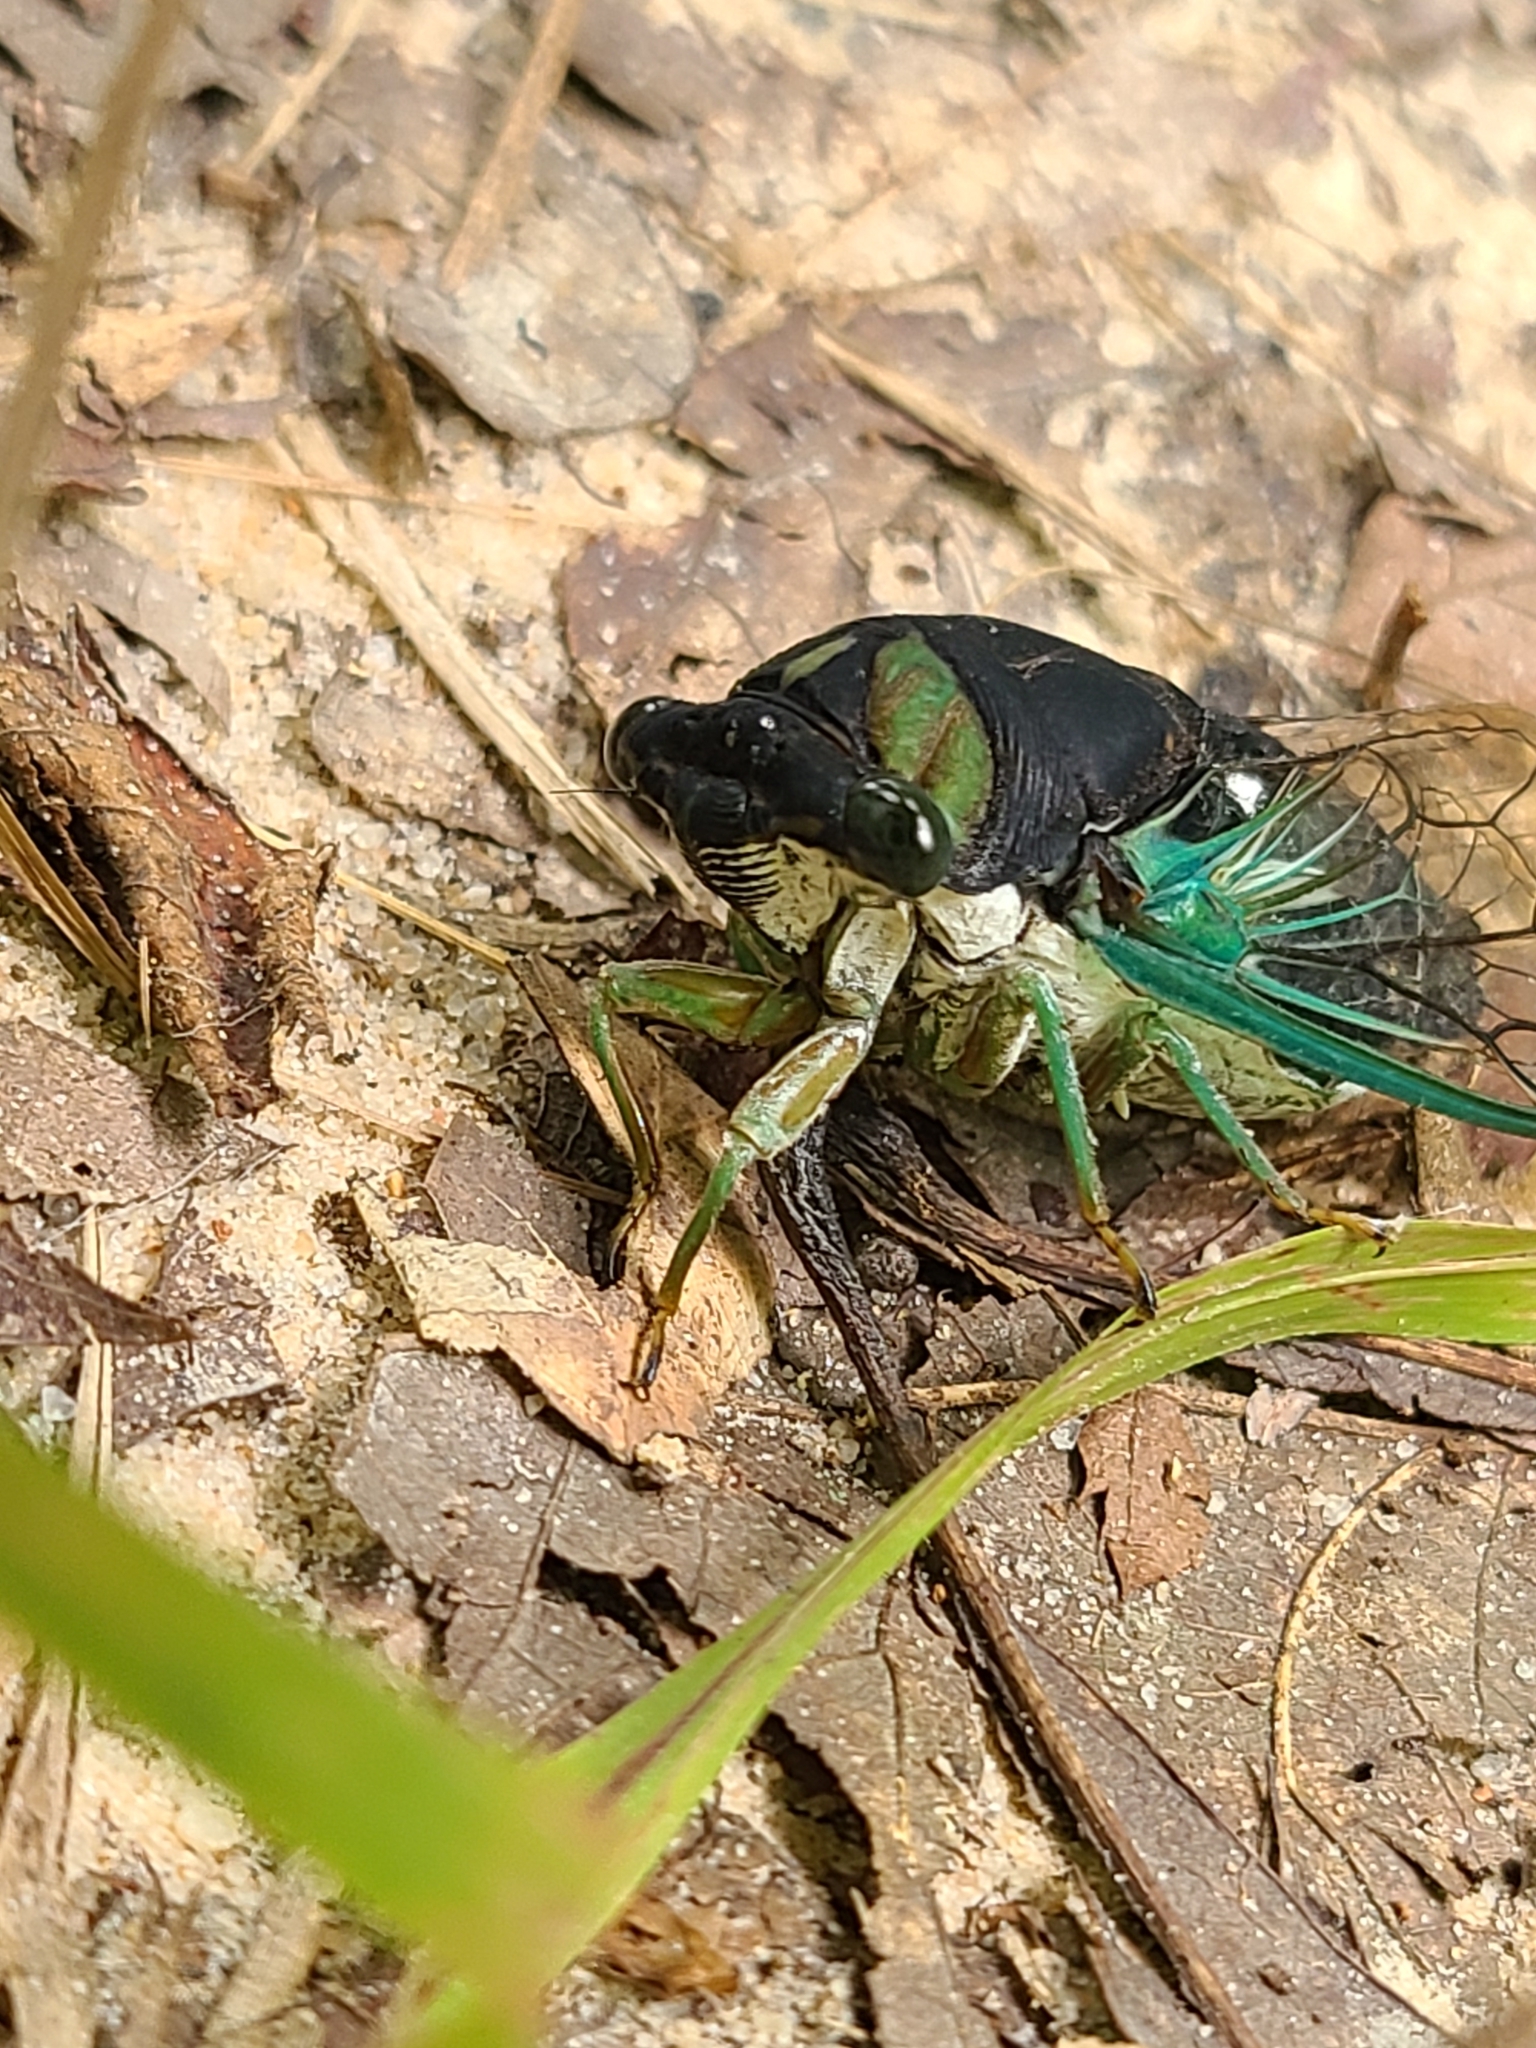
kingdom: Animalia
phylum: Arthropoda
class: Insecta
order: Hemiptera
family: Cicadidae
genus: Neotibicen
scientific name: Neotibicen tibicen
